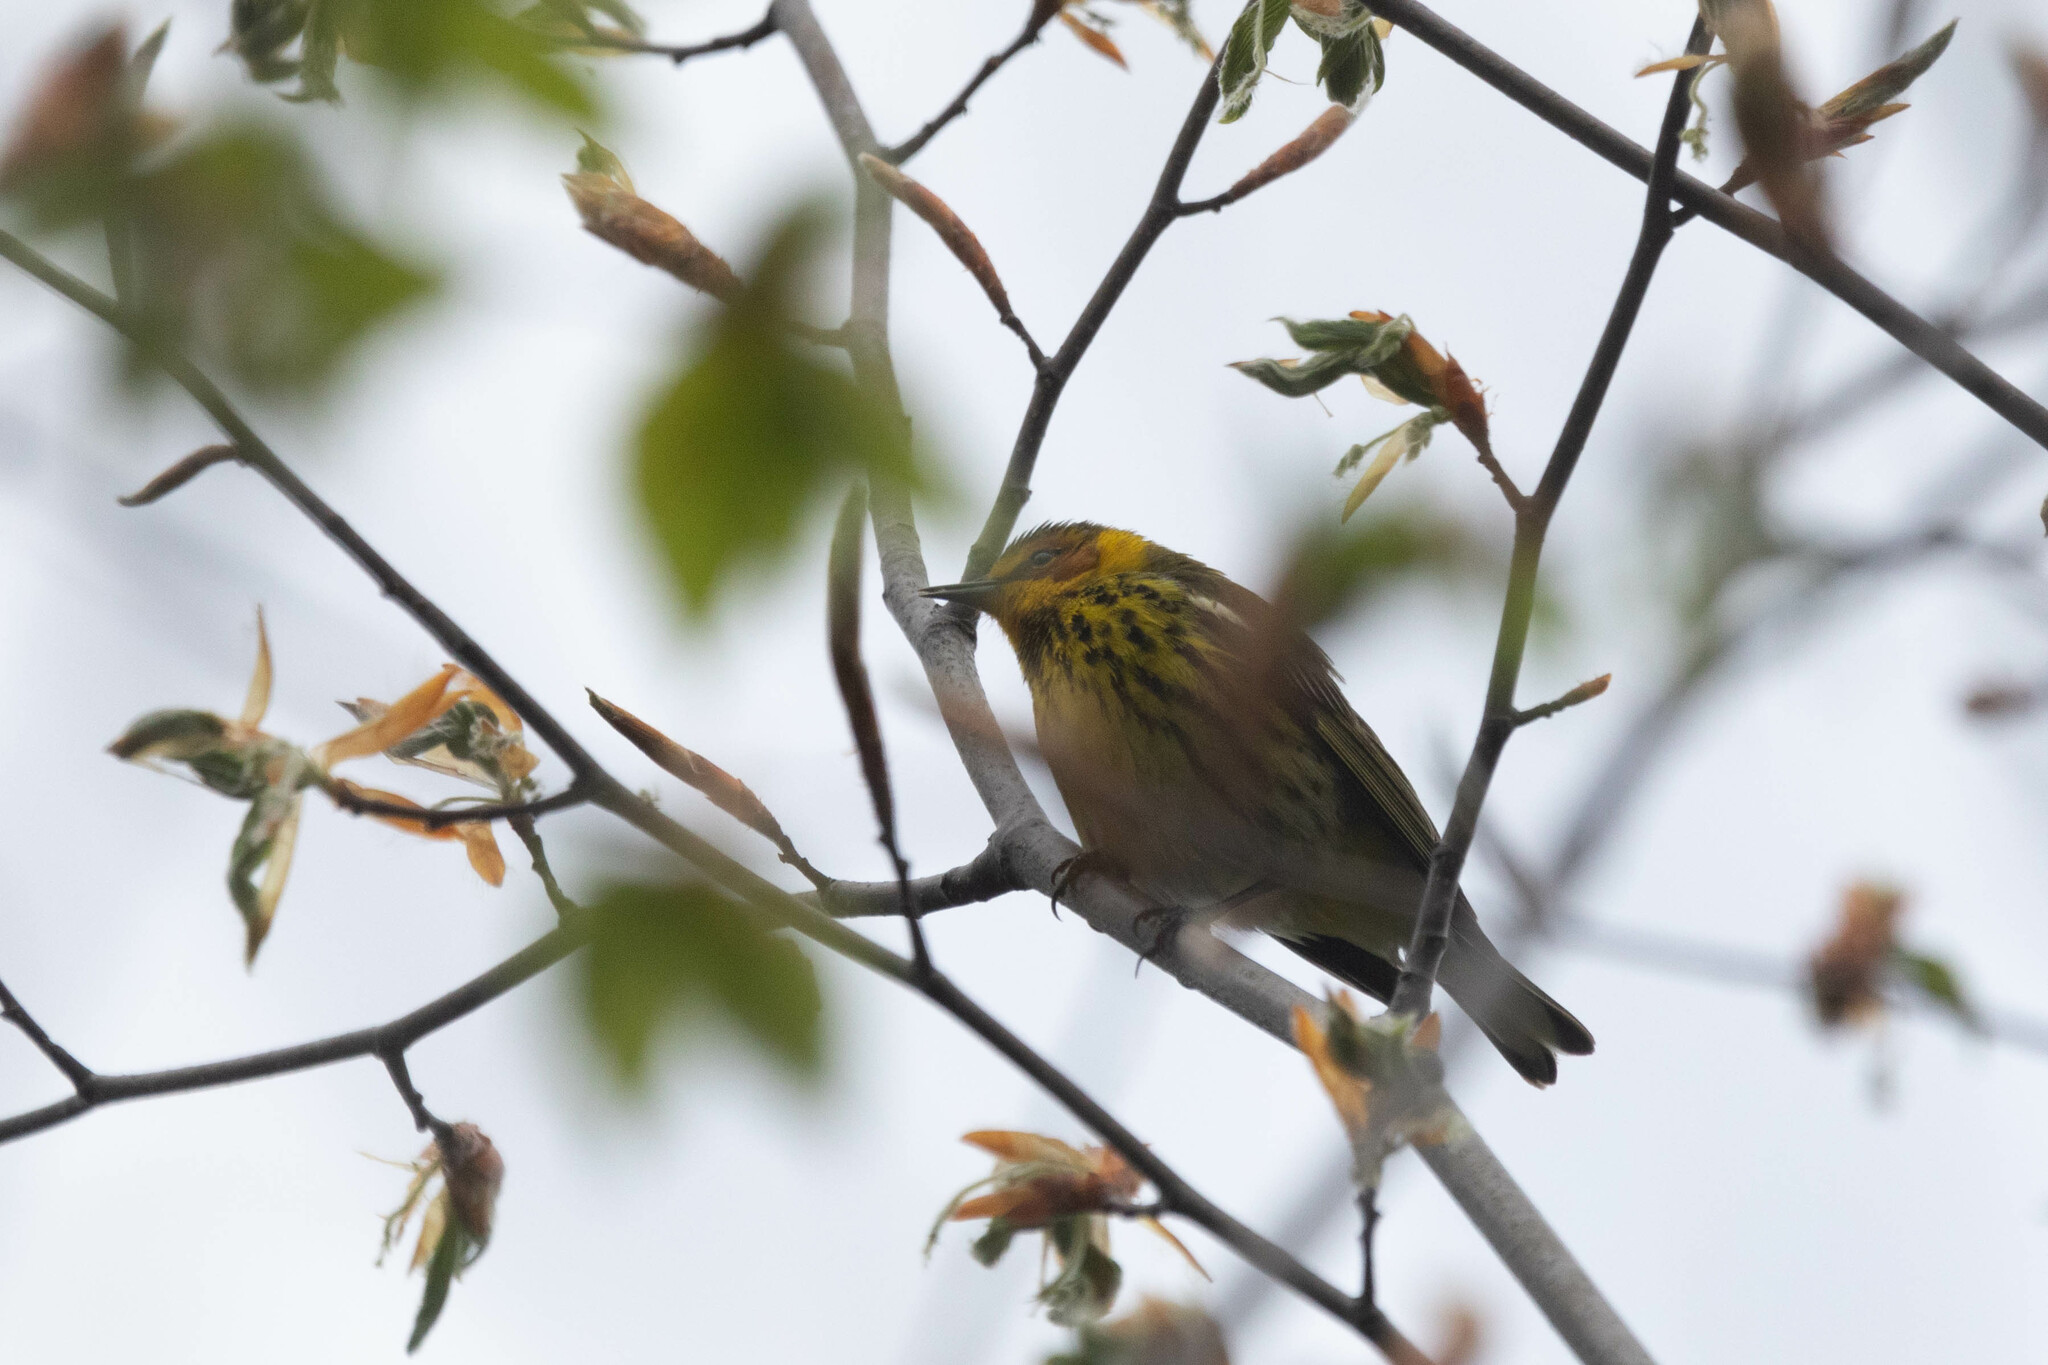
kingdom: Animalia
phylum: Chordata
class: Aves
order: Passeriformes
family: Parulidae
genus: Setophaga
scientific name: Setophaga tigrina
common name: Cape may warbler
